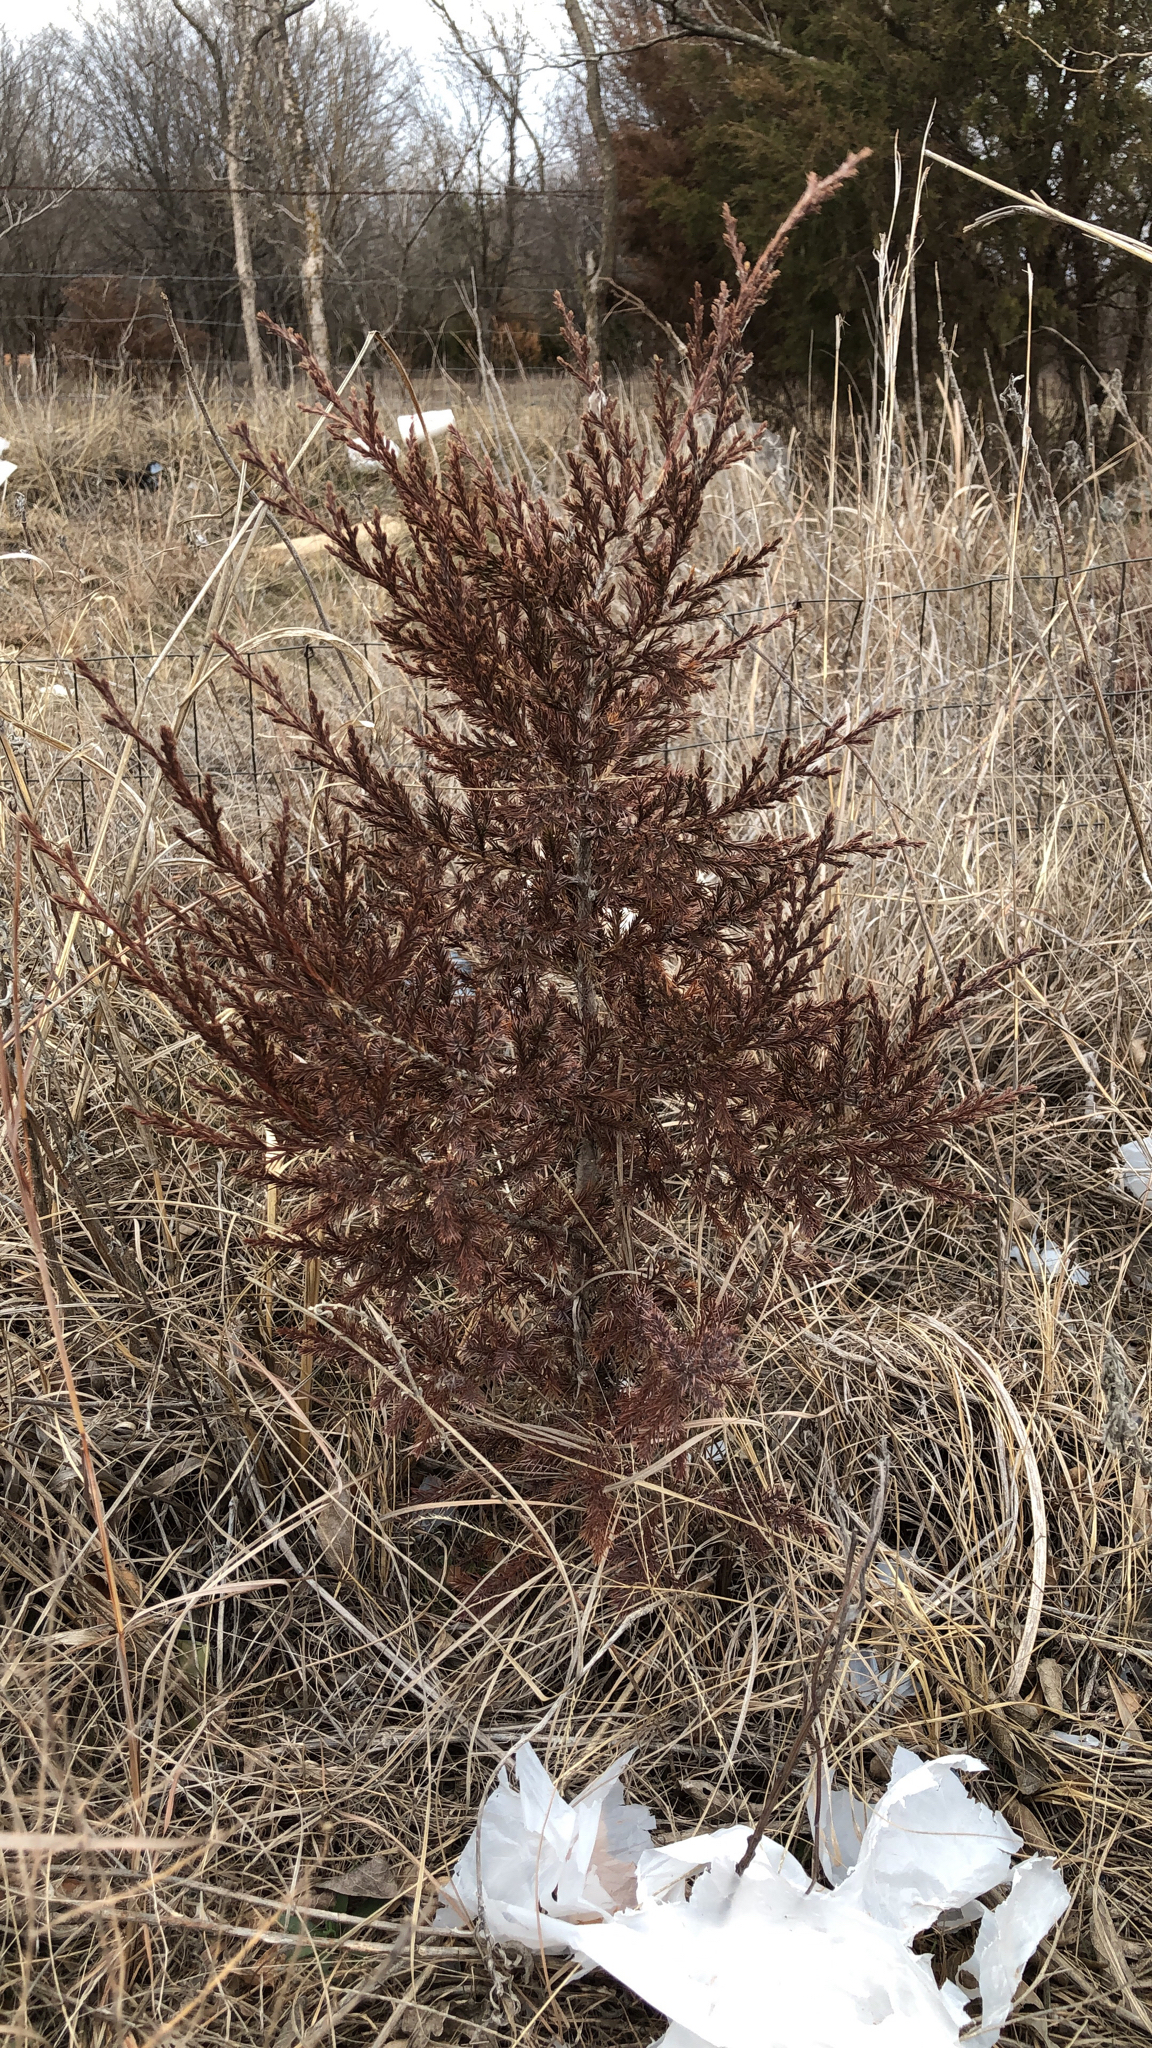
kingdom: Plantae
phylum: Tracheophyta
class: Pinopsida
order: Pinales
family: Cupressaceae
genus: Juniperus
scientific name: Juniperus virginiana
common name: Red juniper
